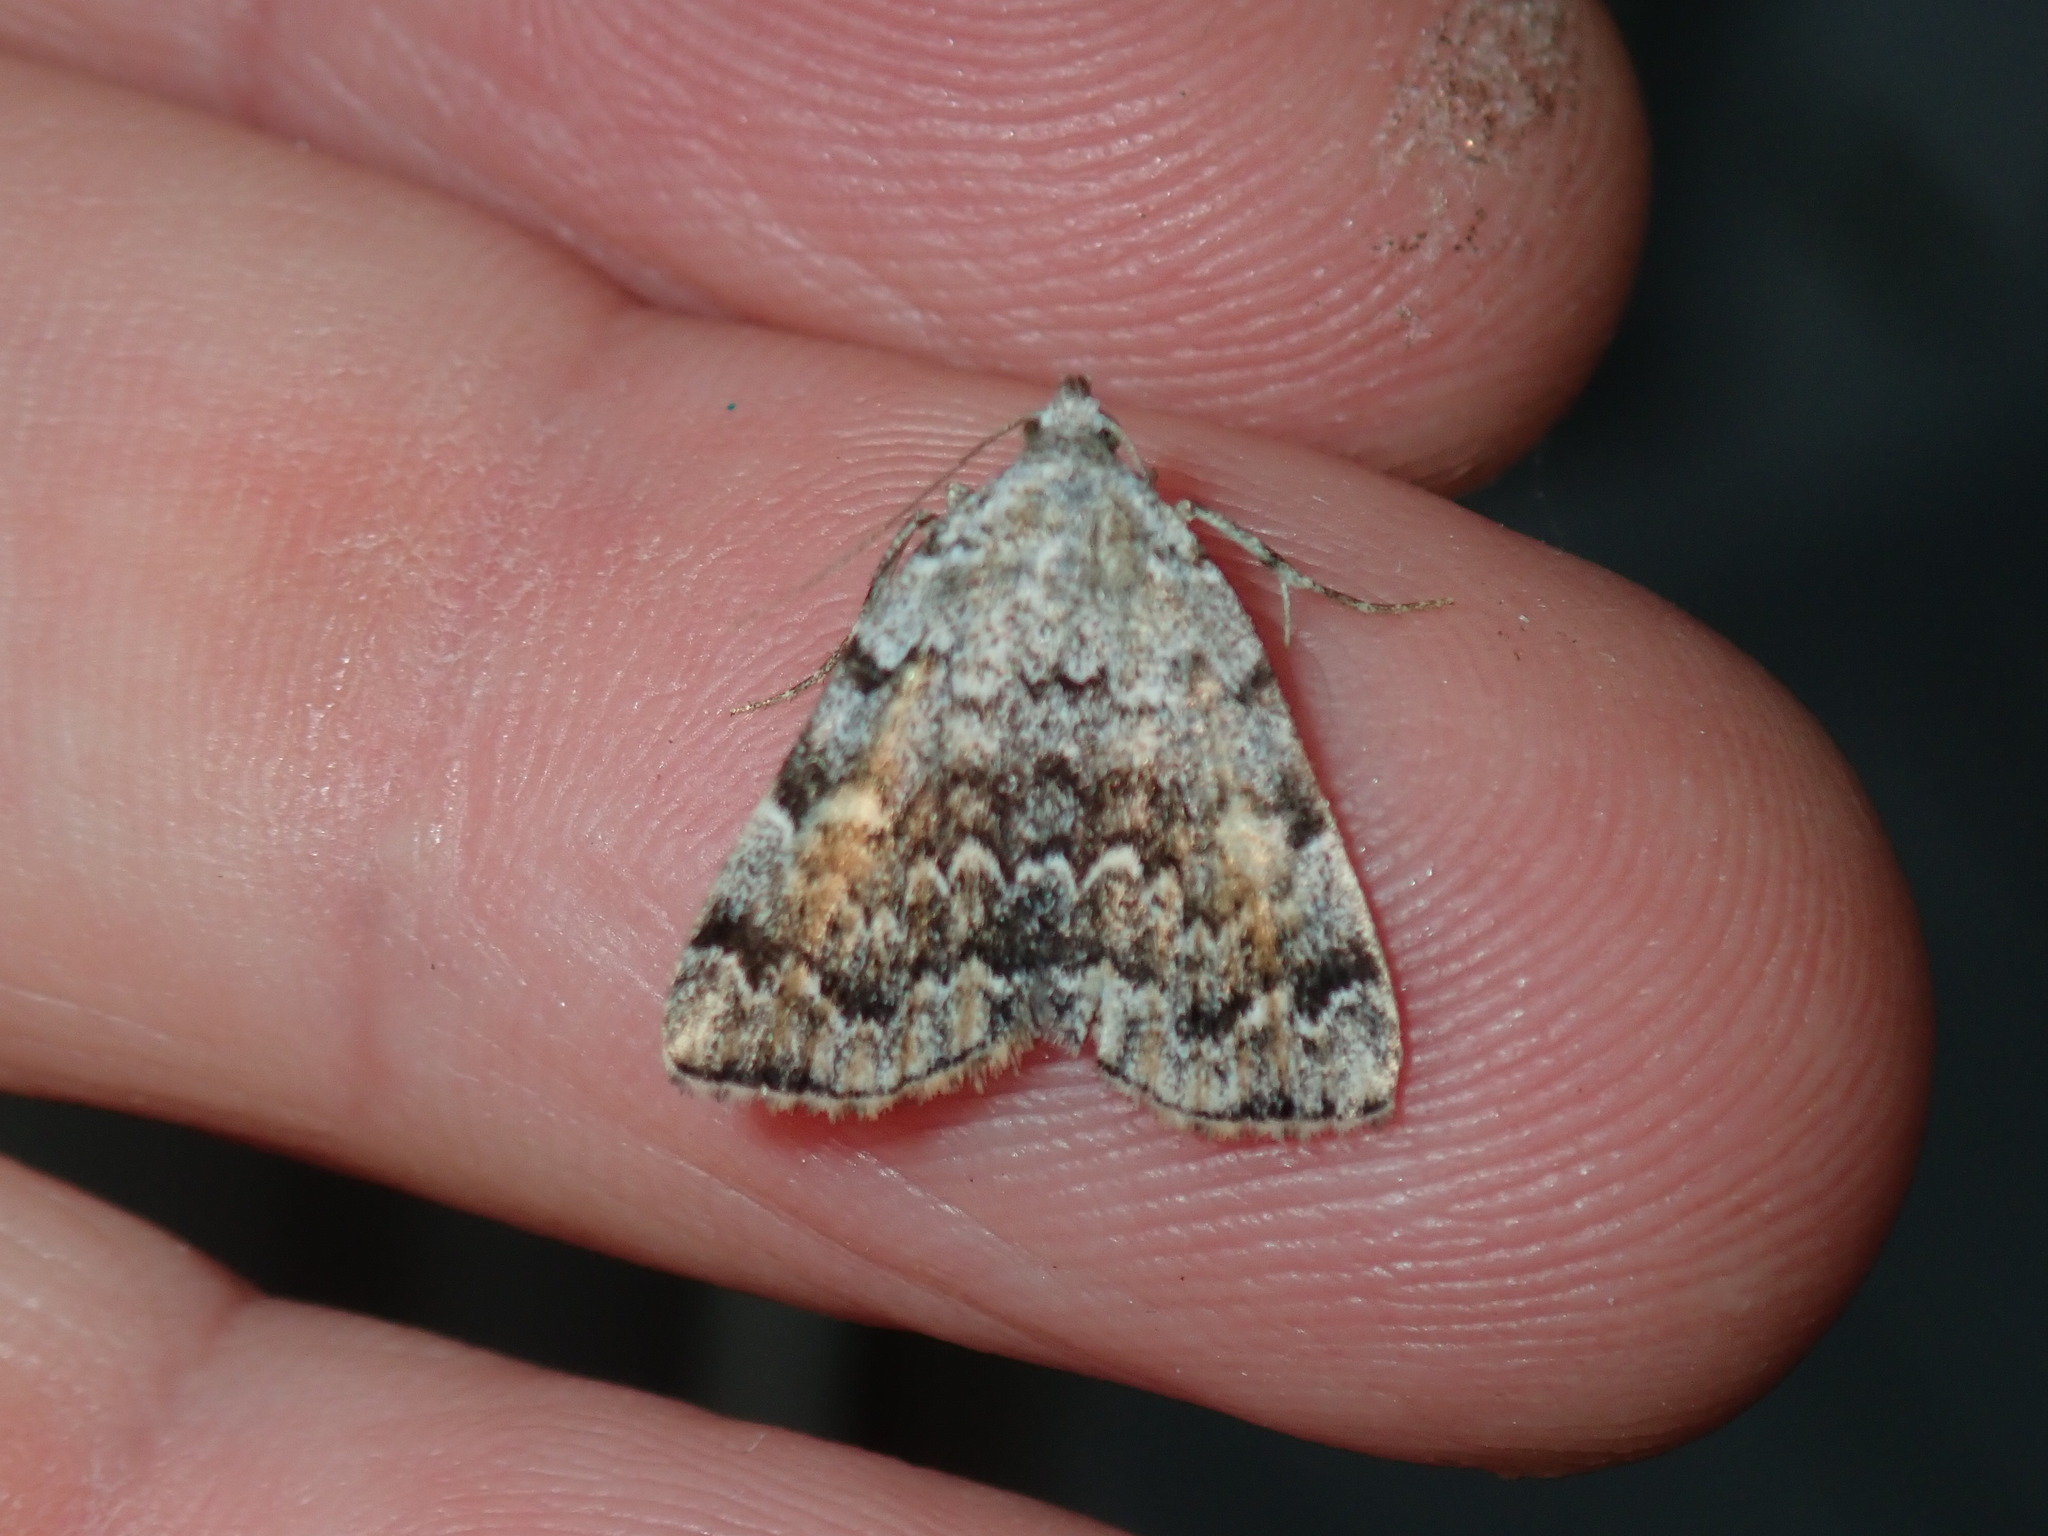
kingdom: Animalia
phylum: Arthropoda
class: Insecta
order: Lepidoptera
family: Erebidae
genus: Idia
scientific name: Idia americalis
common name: American idia moth
